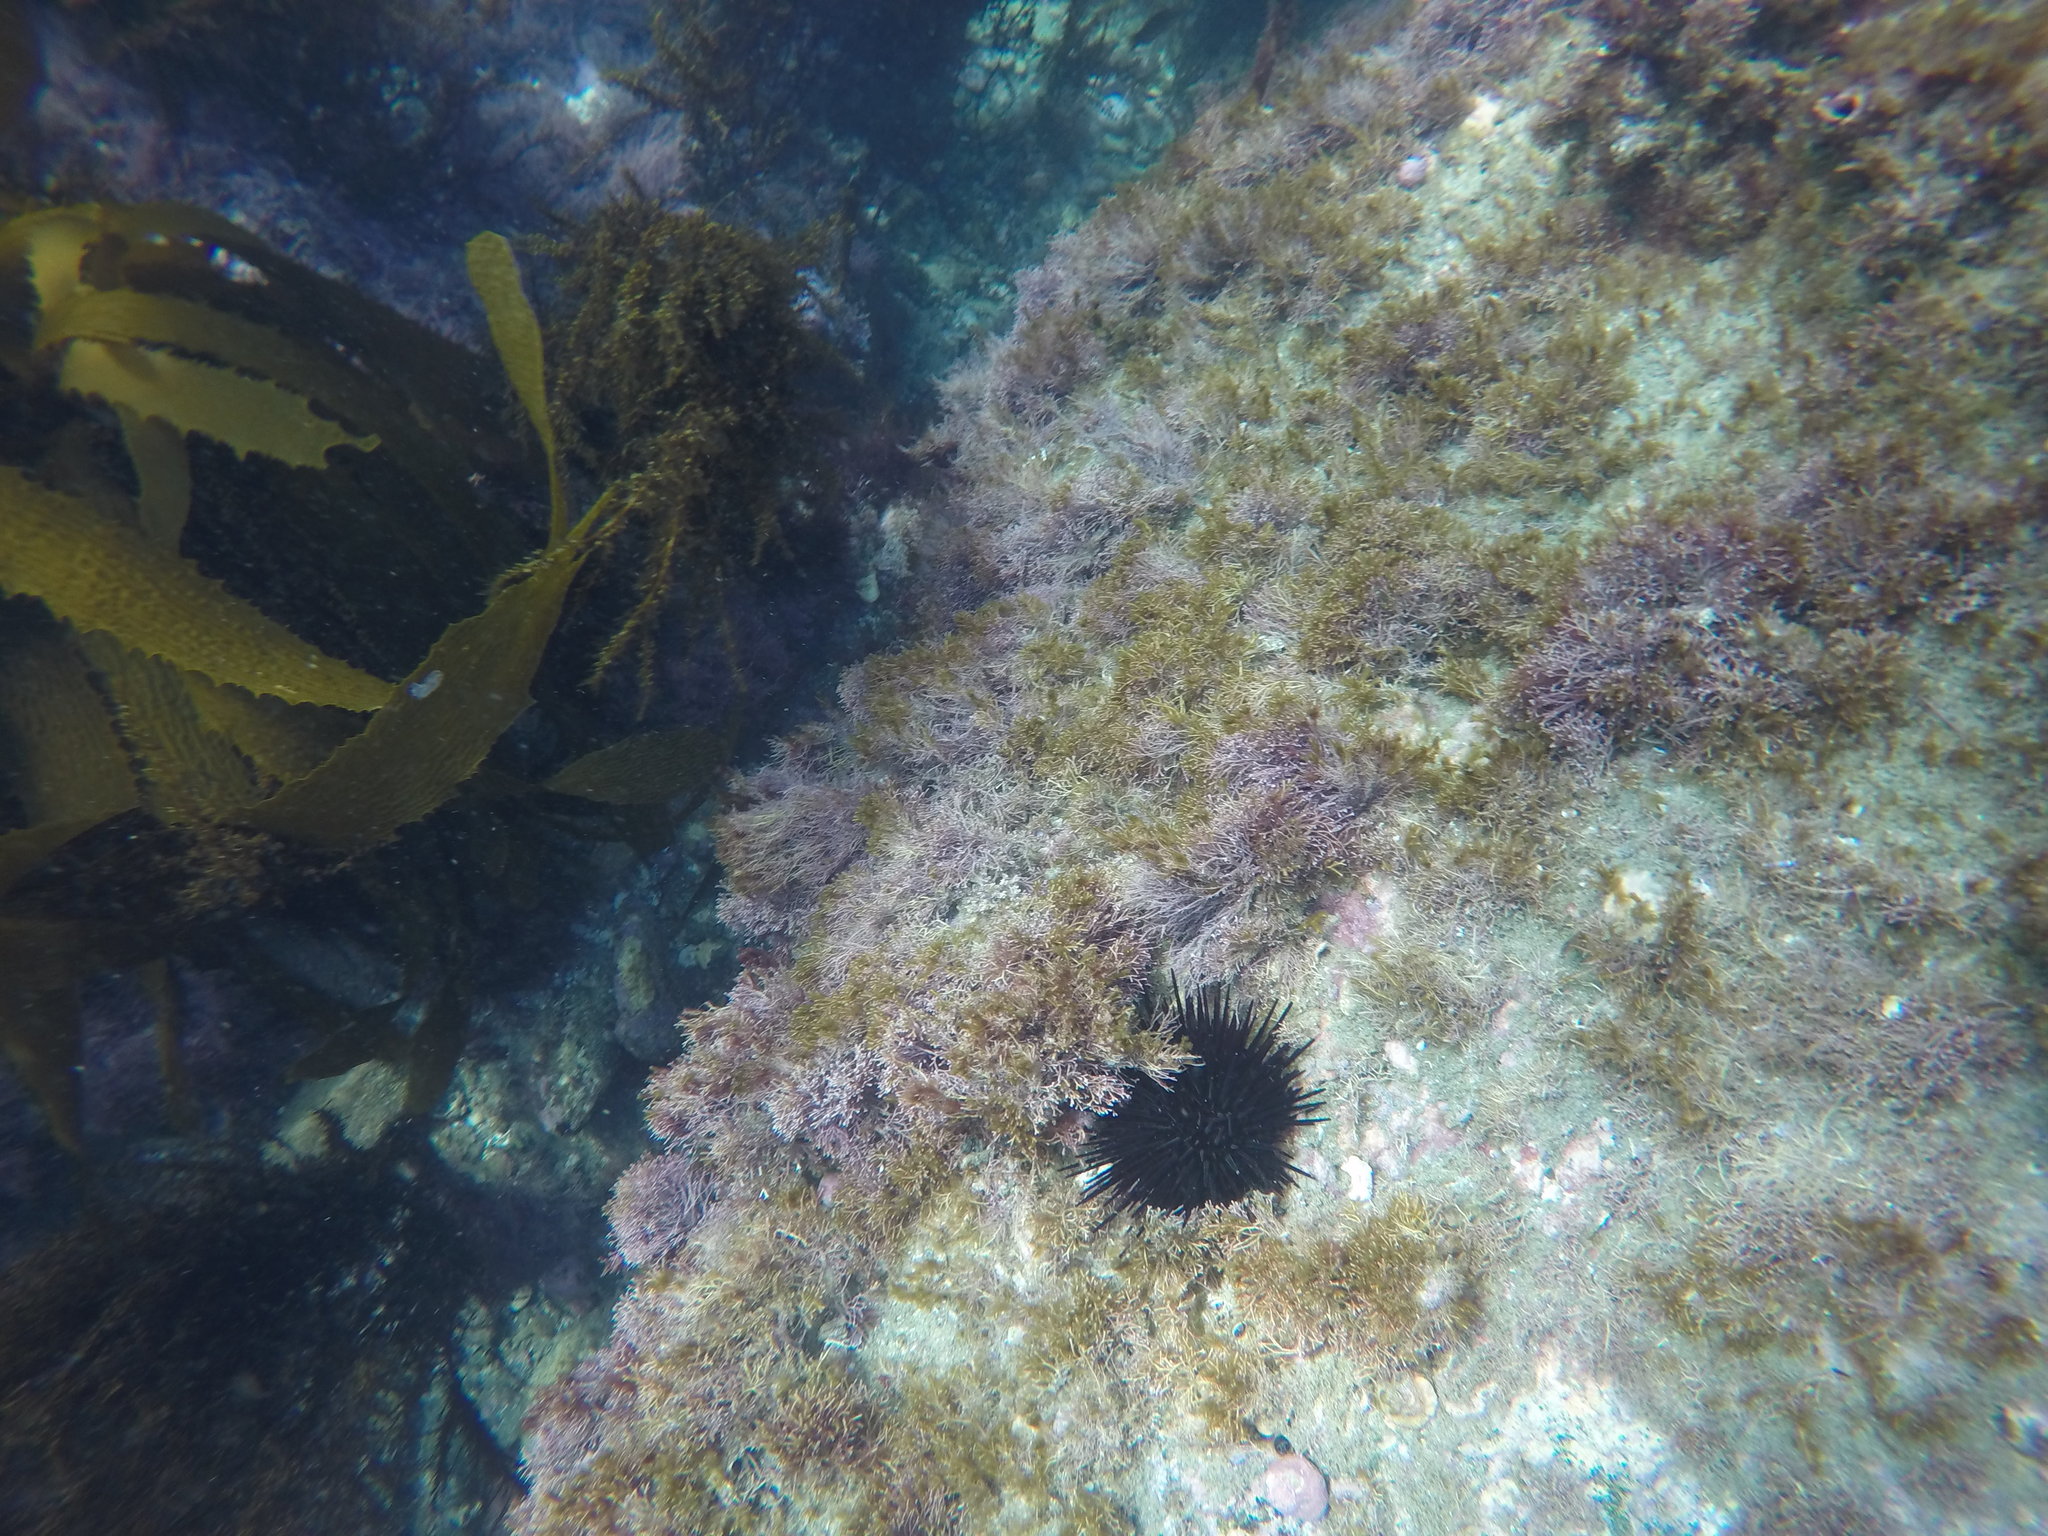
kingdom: Animalia
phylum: Echinodermata
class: Echinoidea
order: Camarodonta
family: Strongylocentrotidae
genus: Mesocentrotus
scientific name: Mesocentrotus franciscanus
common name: Red sea urchin
